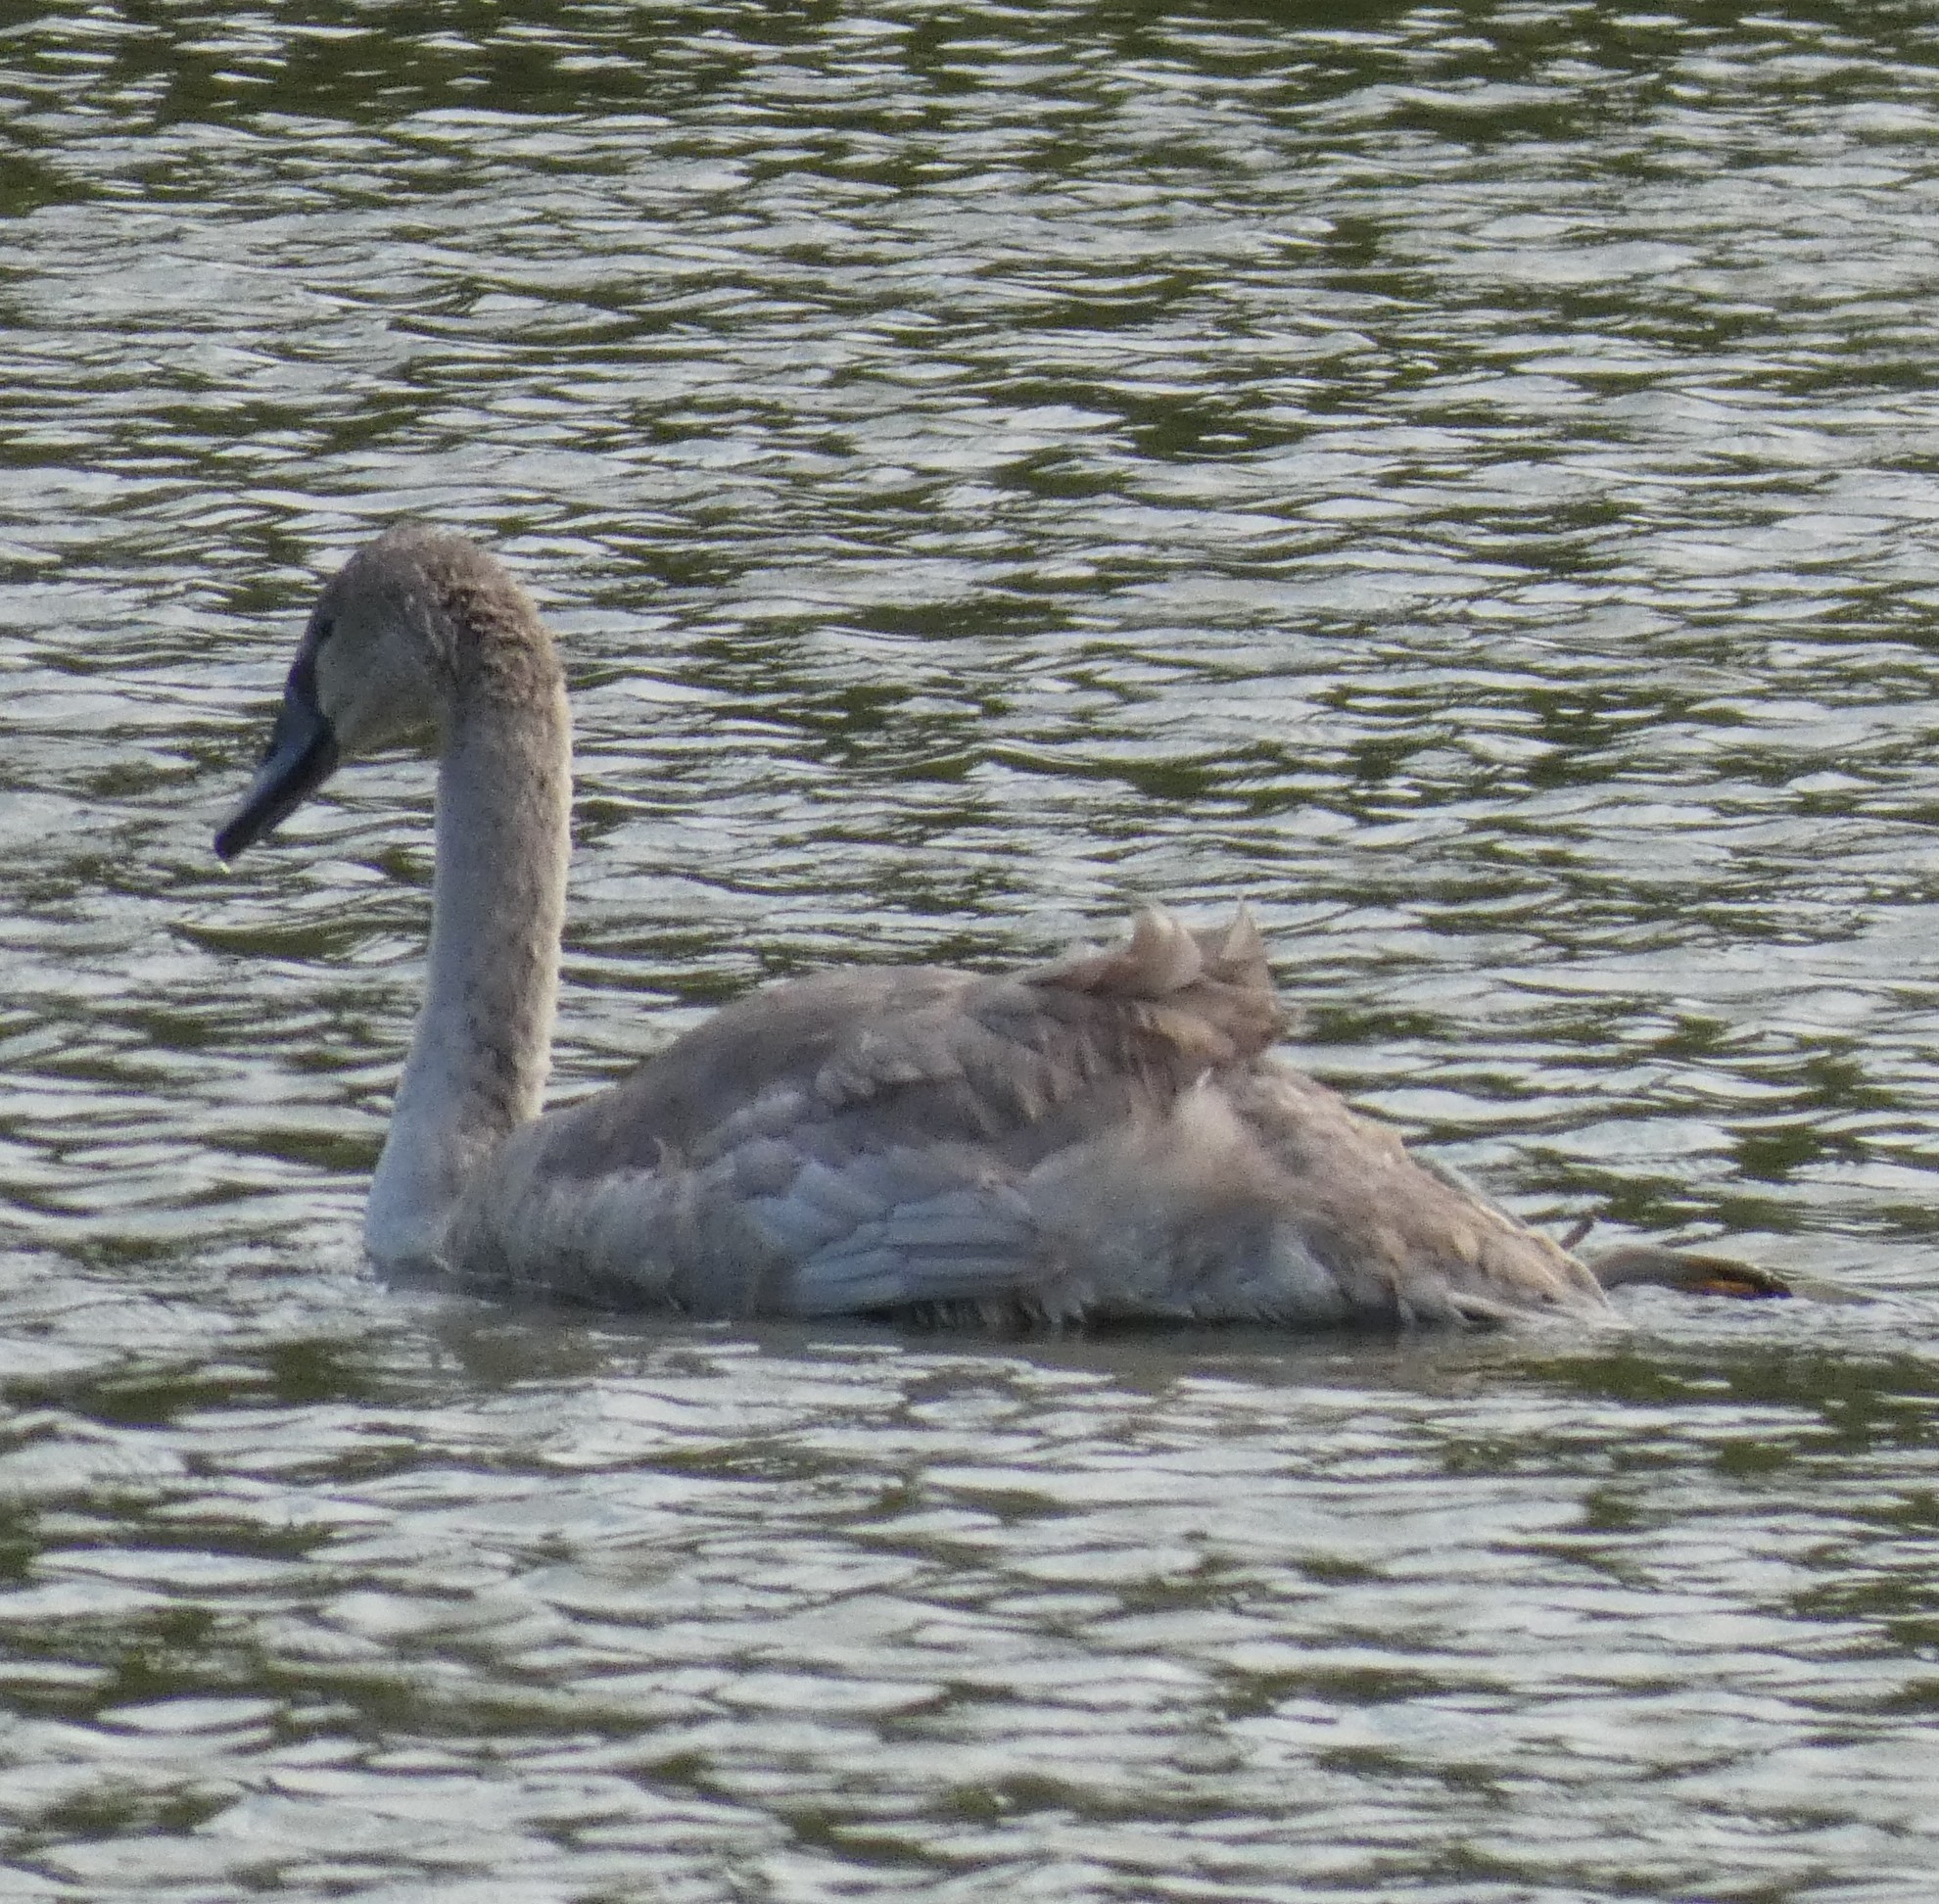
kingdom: Animalia
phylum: Chordata
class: Aves
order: Anseriformes
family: Anatidae
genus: Cygnus
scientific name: Cygnus olor
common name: Mute swan
